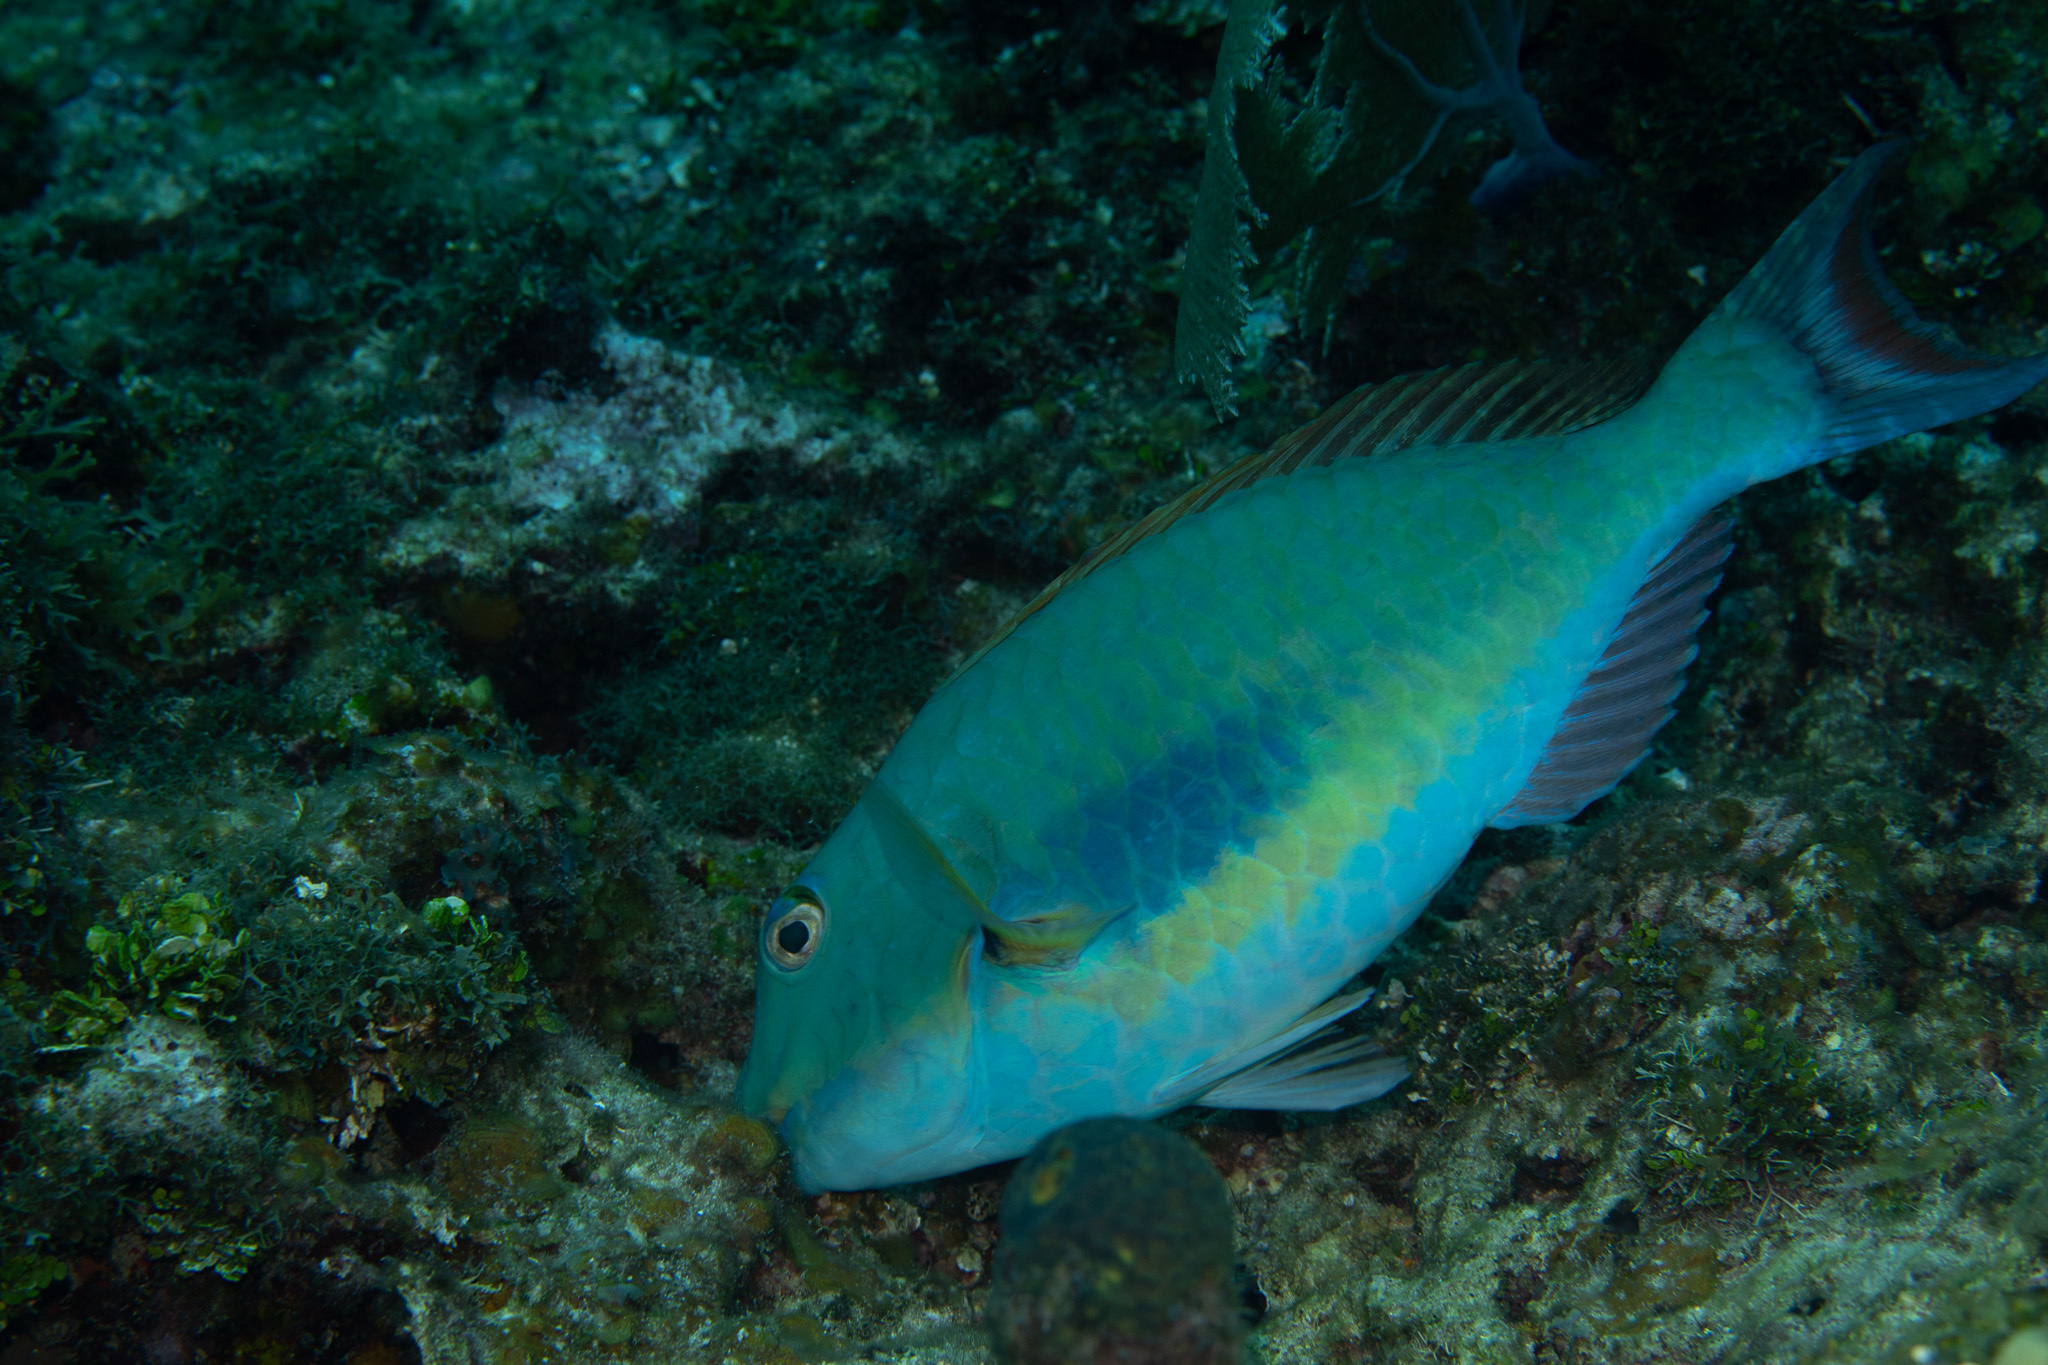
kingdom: Animalia
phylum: Chordata
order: Perciformes
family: Scaridae
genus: Sparisoma
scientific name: Sparisoma chrysopterum
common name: Redtail parrotfish
